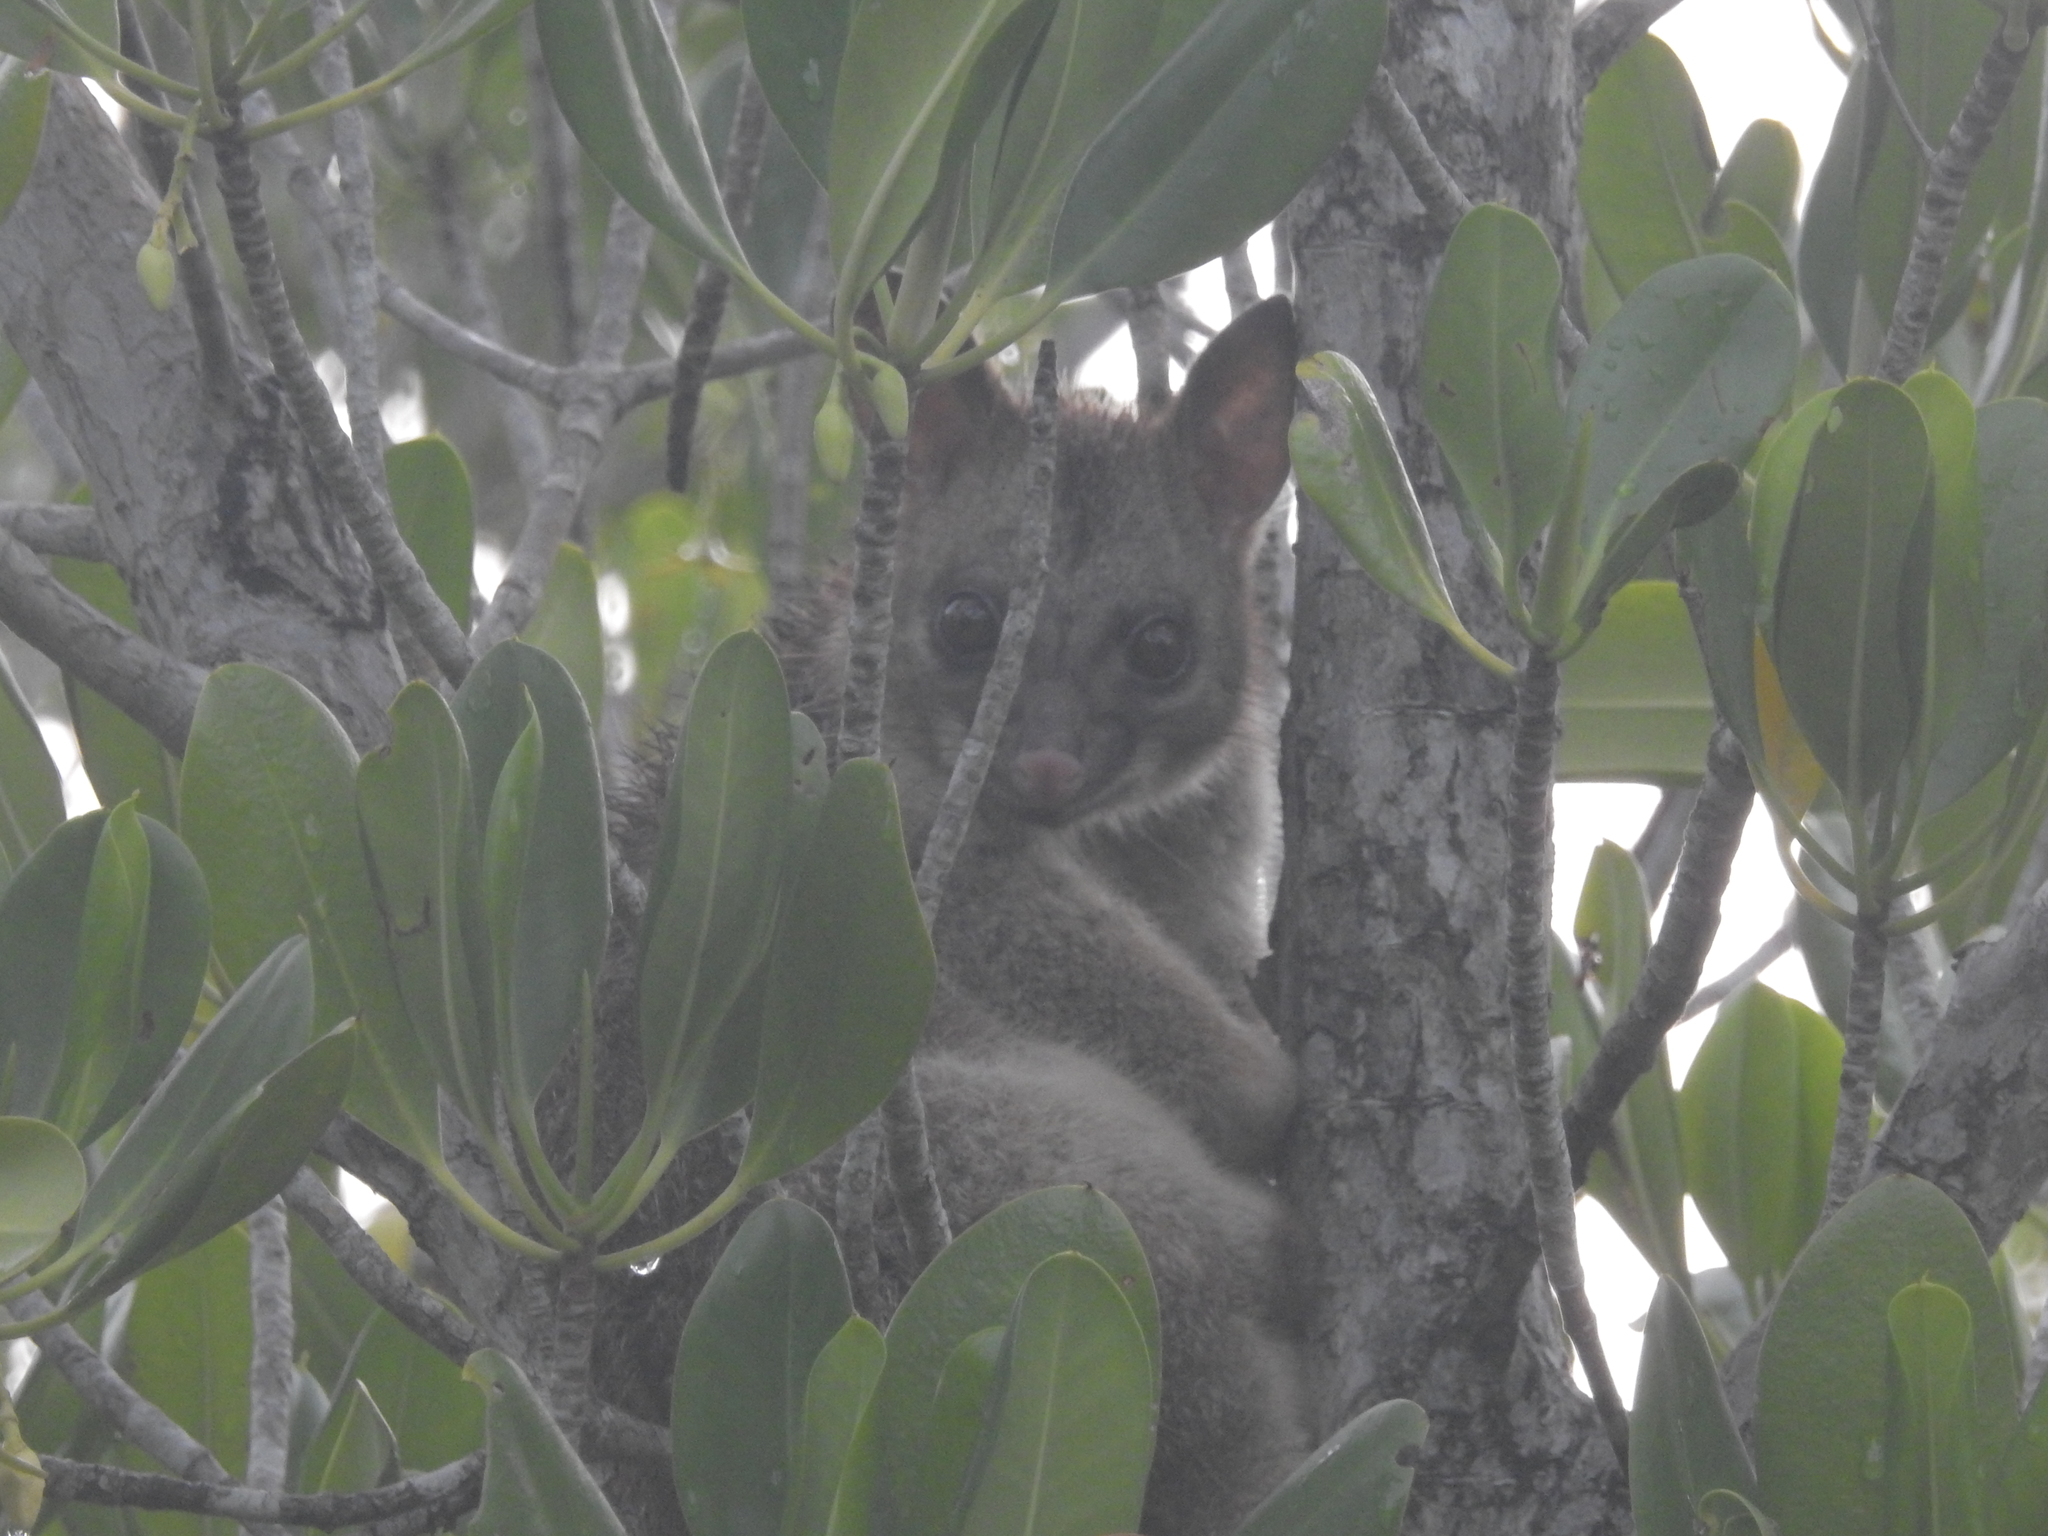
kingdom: Animalia
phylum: Chordata
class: Mammalia
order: Diprotodontia
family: Phalangeridae
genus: Trichosurus
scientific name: Trichosurus vulpecula
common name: Common brushtail
